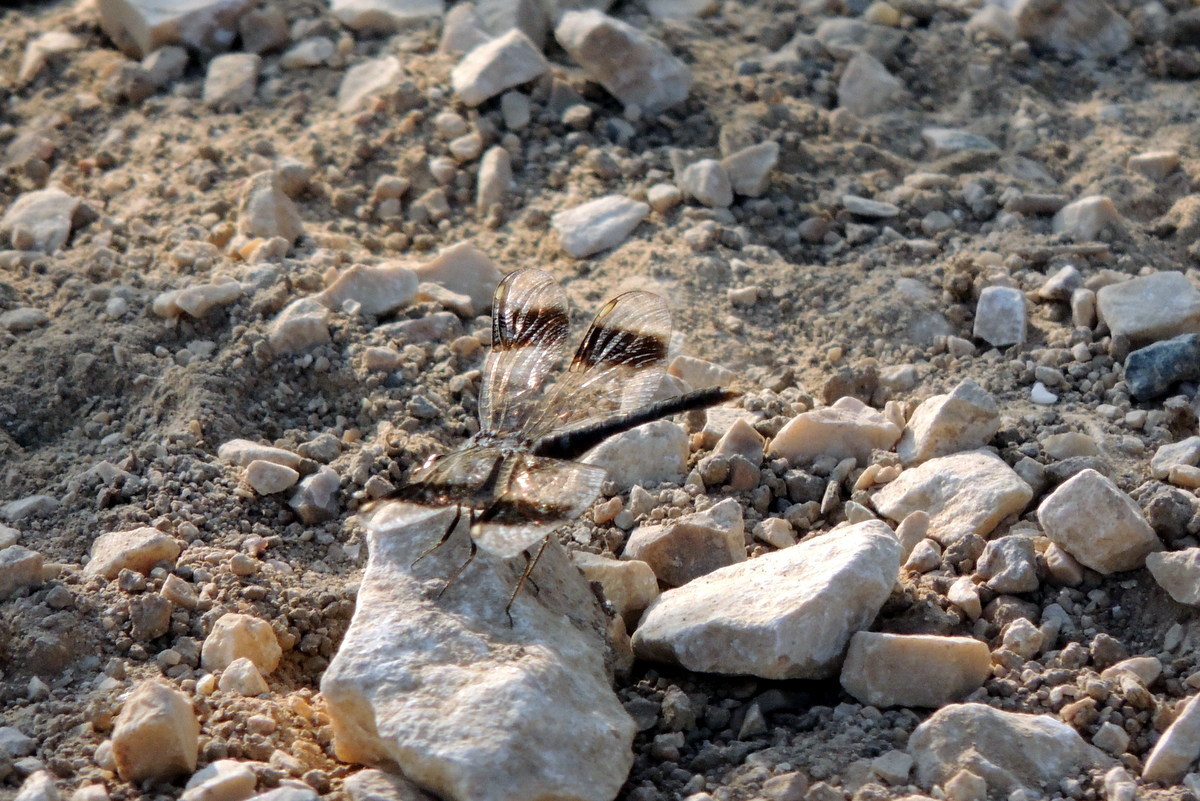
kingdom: Animalia
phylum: Arthropoda
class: Insecta
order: Odonata
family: Libellulidae
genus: Brachythemis
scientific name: Brachythemis impartita
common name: Banded groundling
